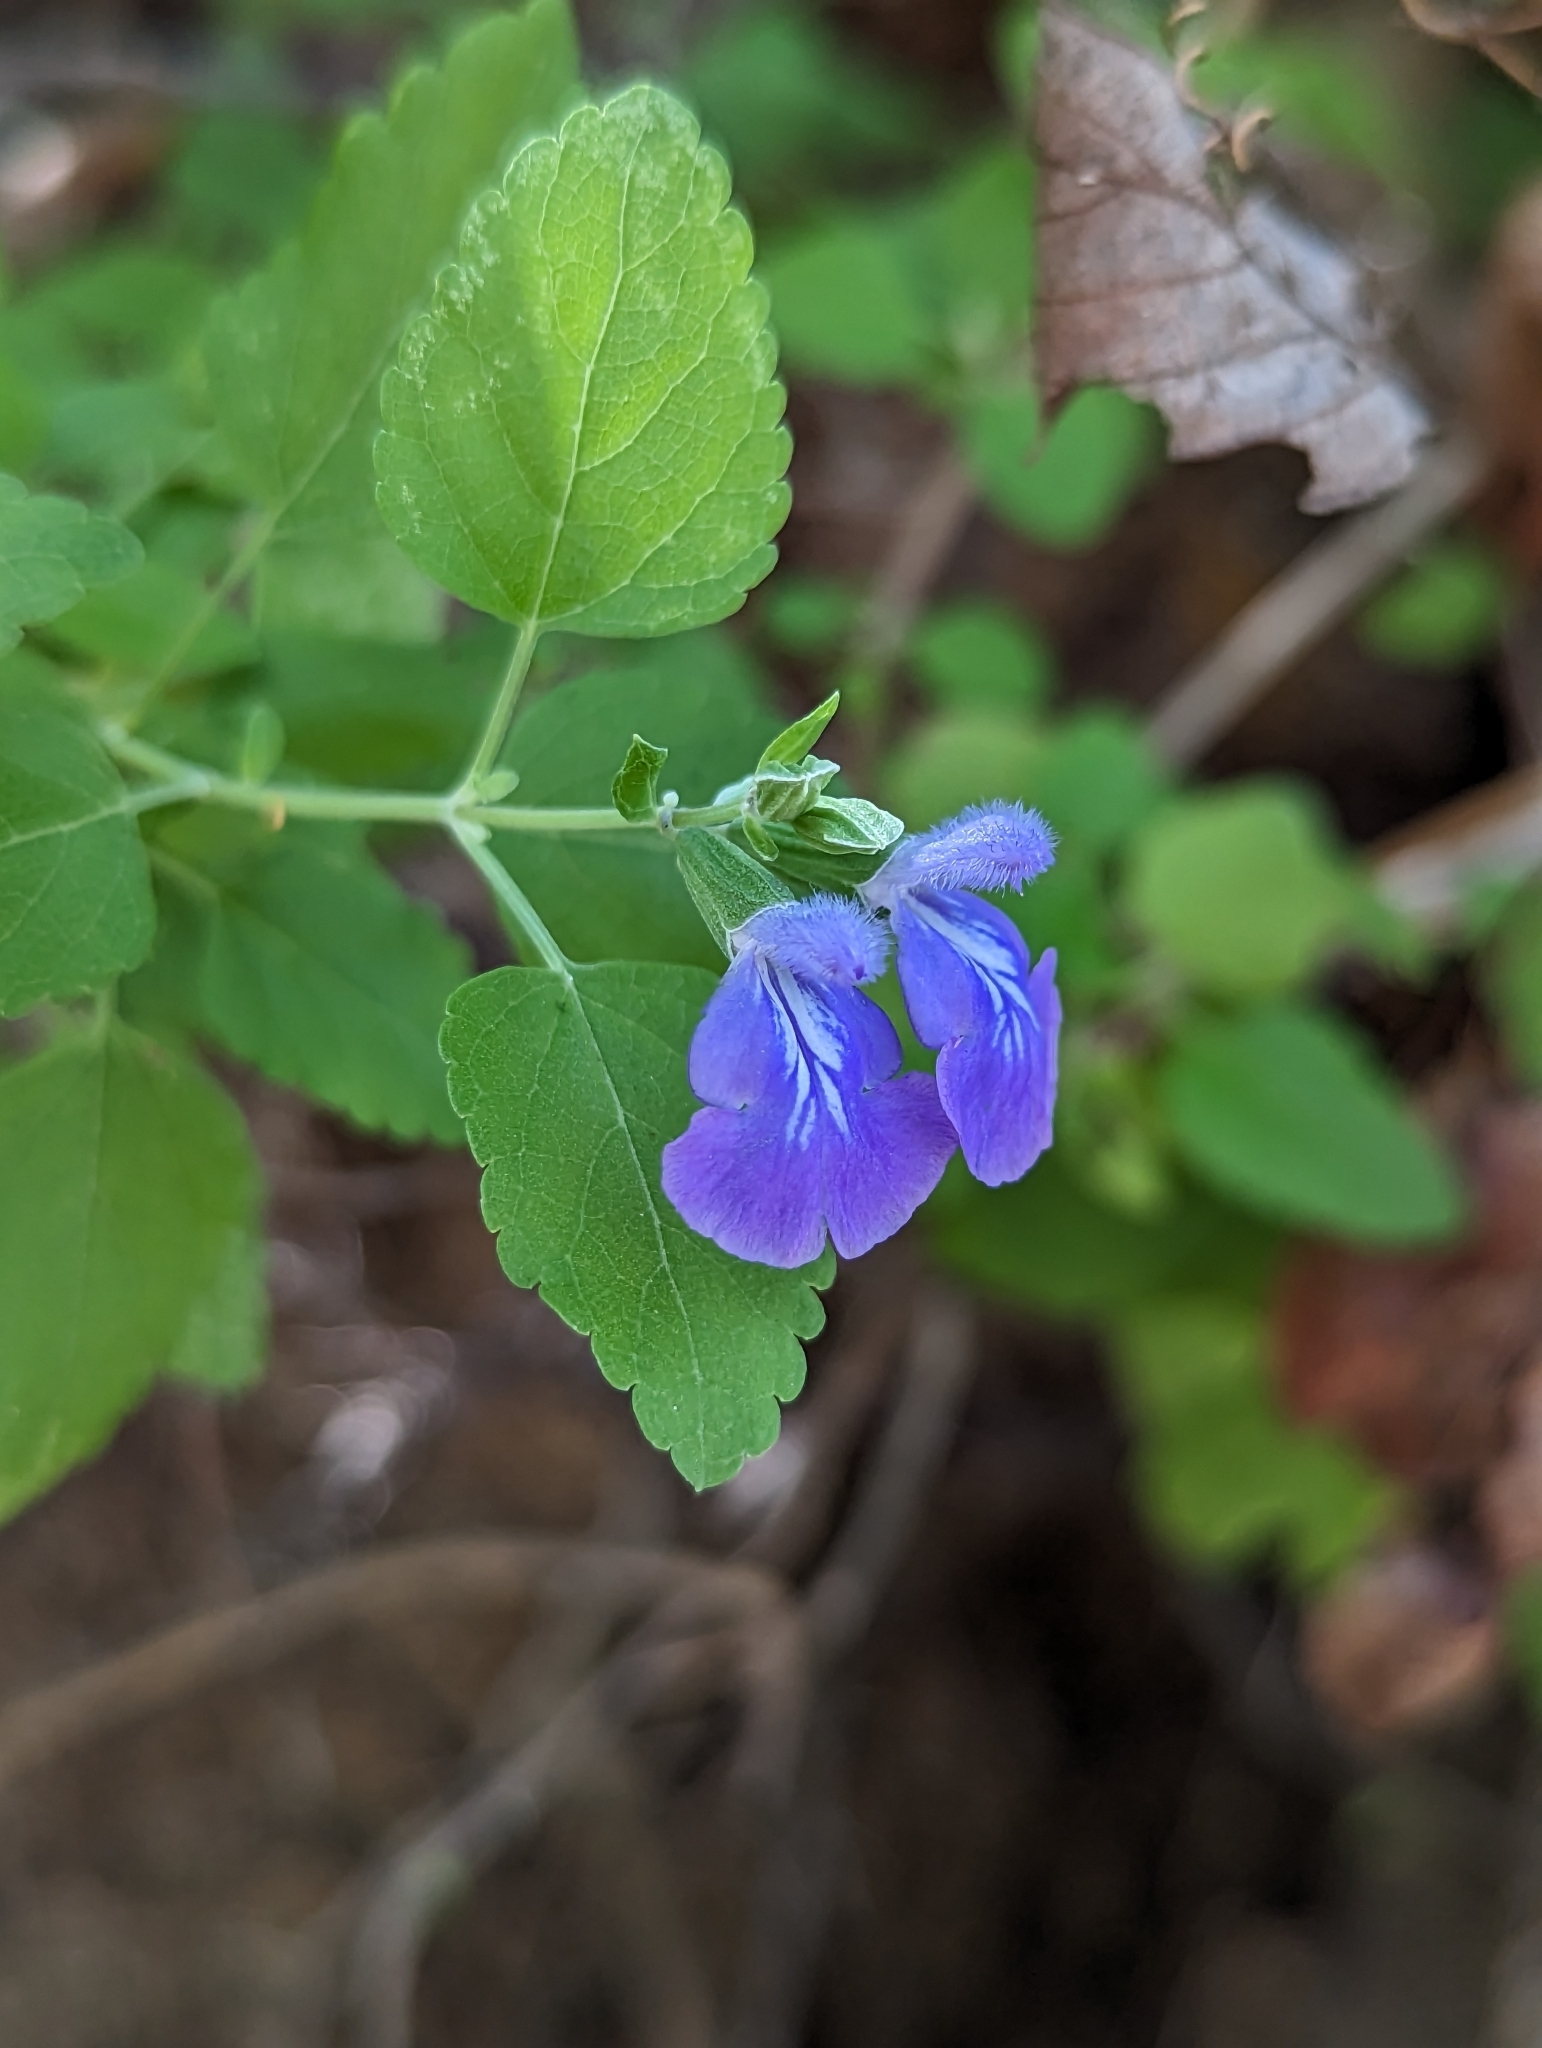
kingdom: Plantae
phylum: Tracheophyta
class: Magnoliopsida
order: Lamiales
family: Lamiaceae
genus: Salvia
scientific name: Salvia similis
